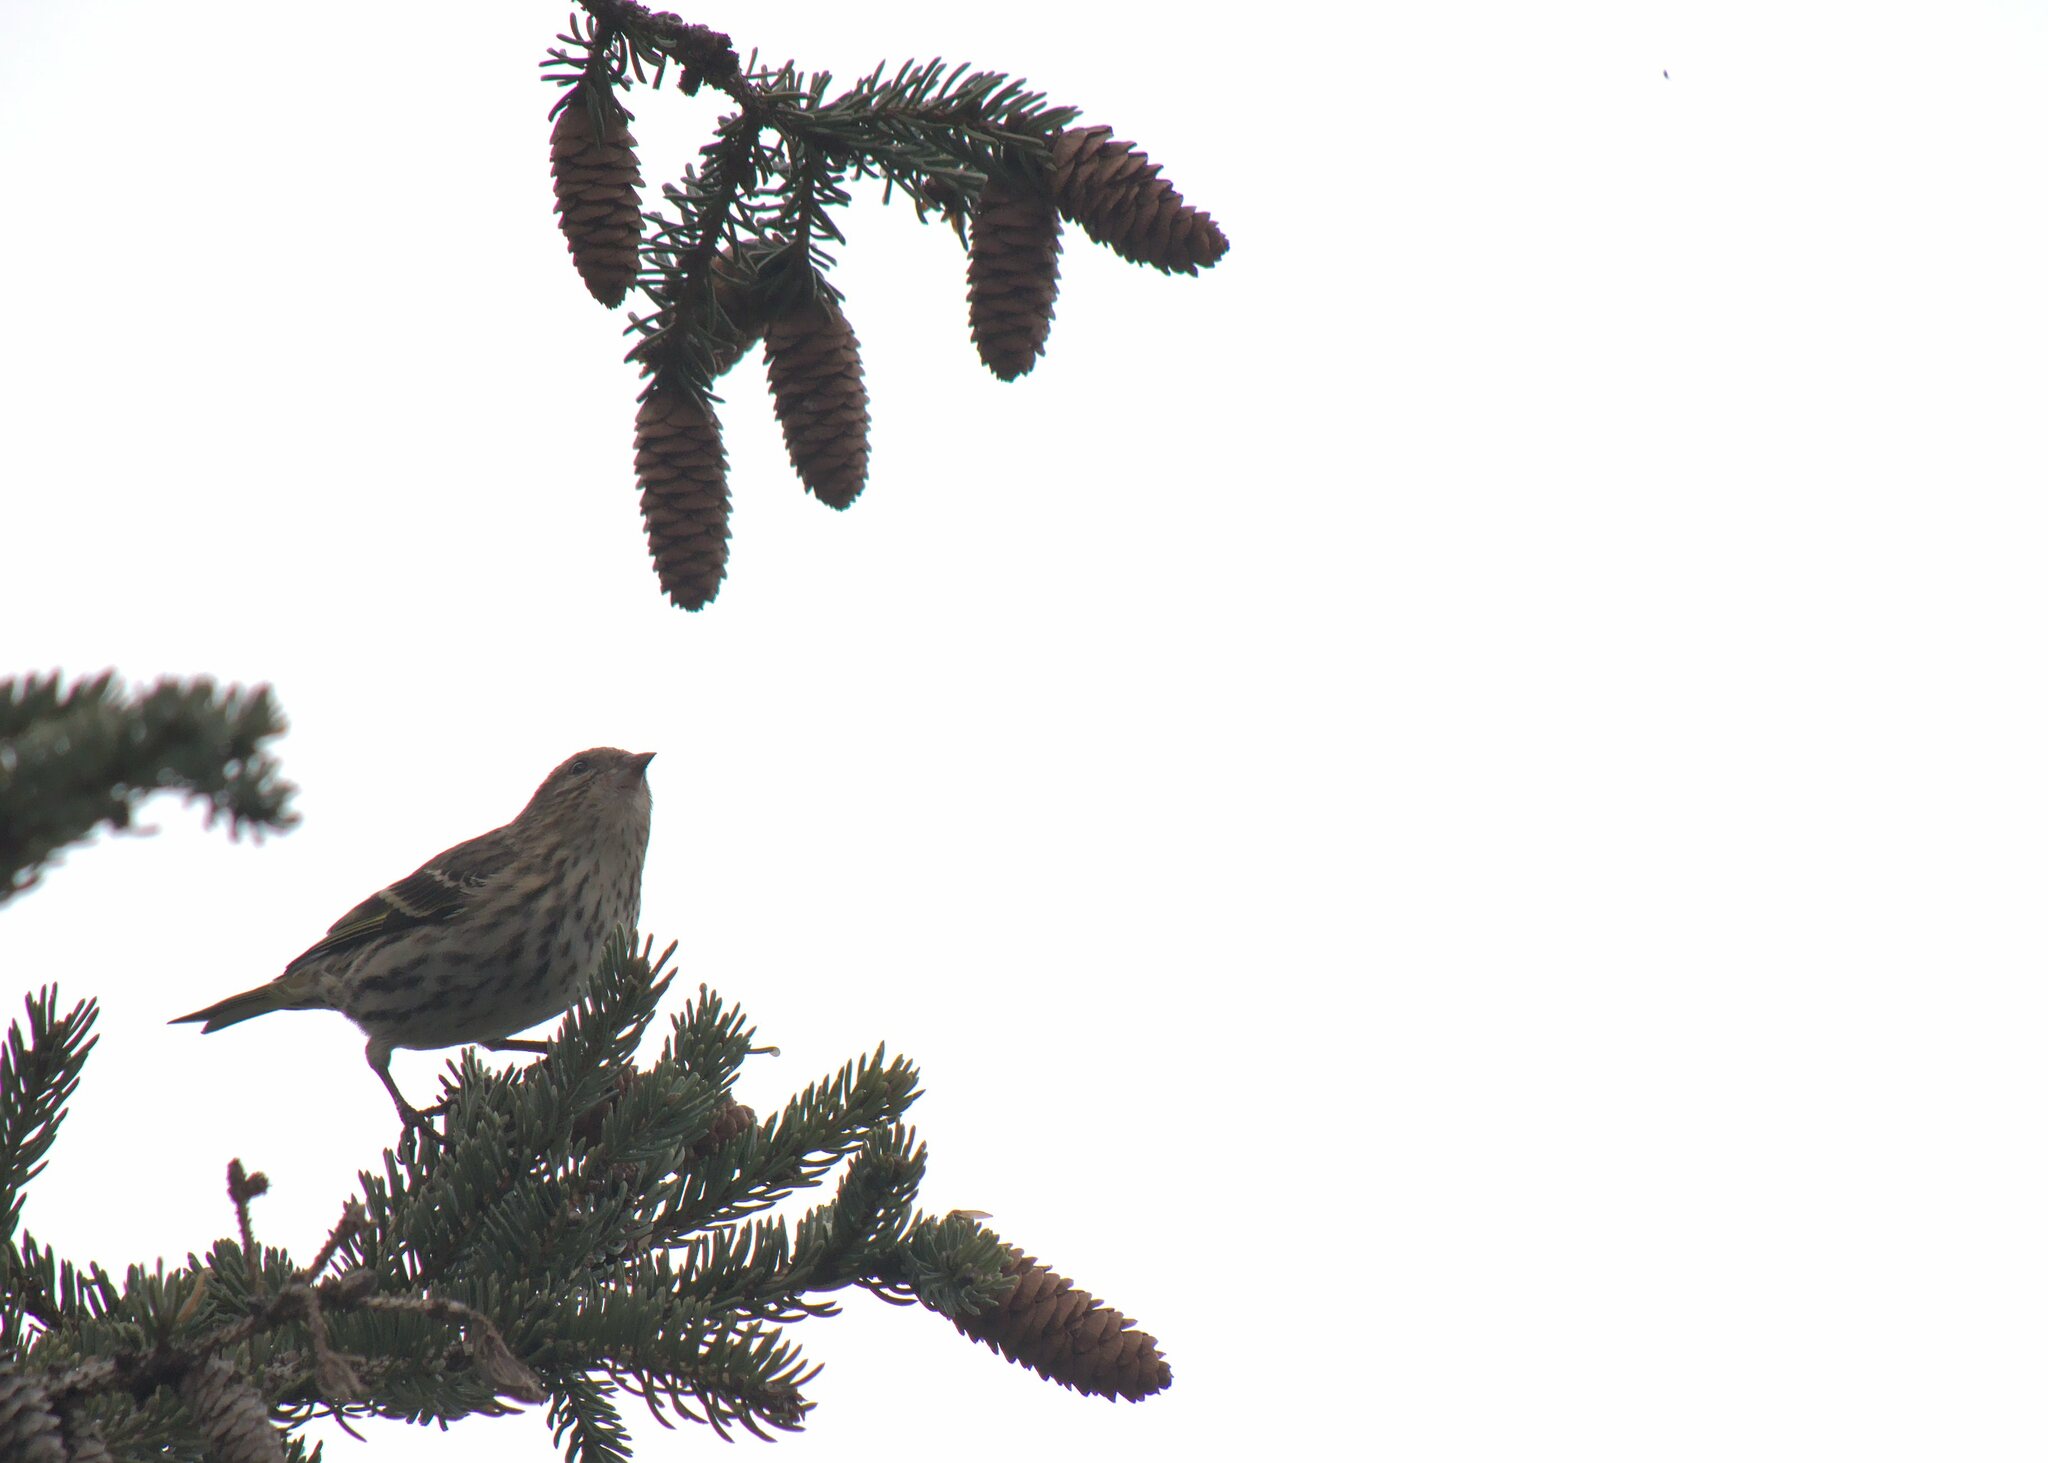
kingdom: Animalia
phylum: Chordata
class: Aves
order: Passeriformes
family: Fringillidae
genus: Spinus
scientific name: Spinus pinus
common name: Pine siskin
